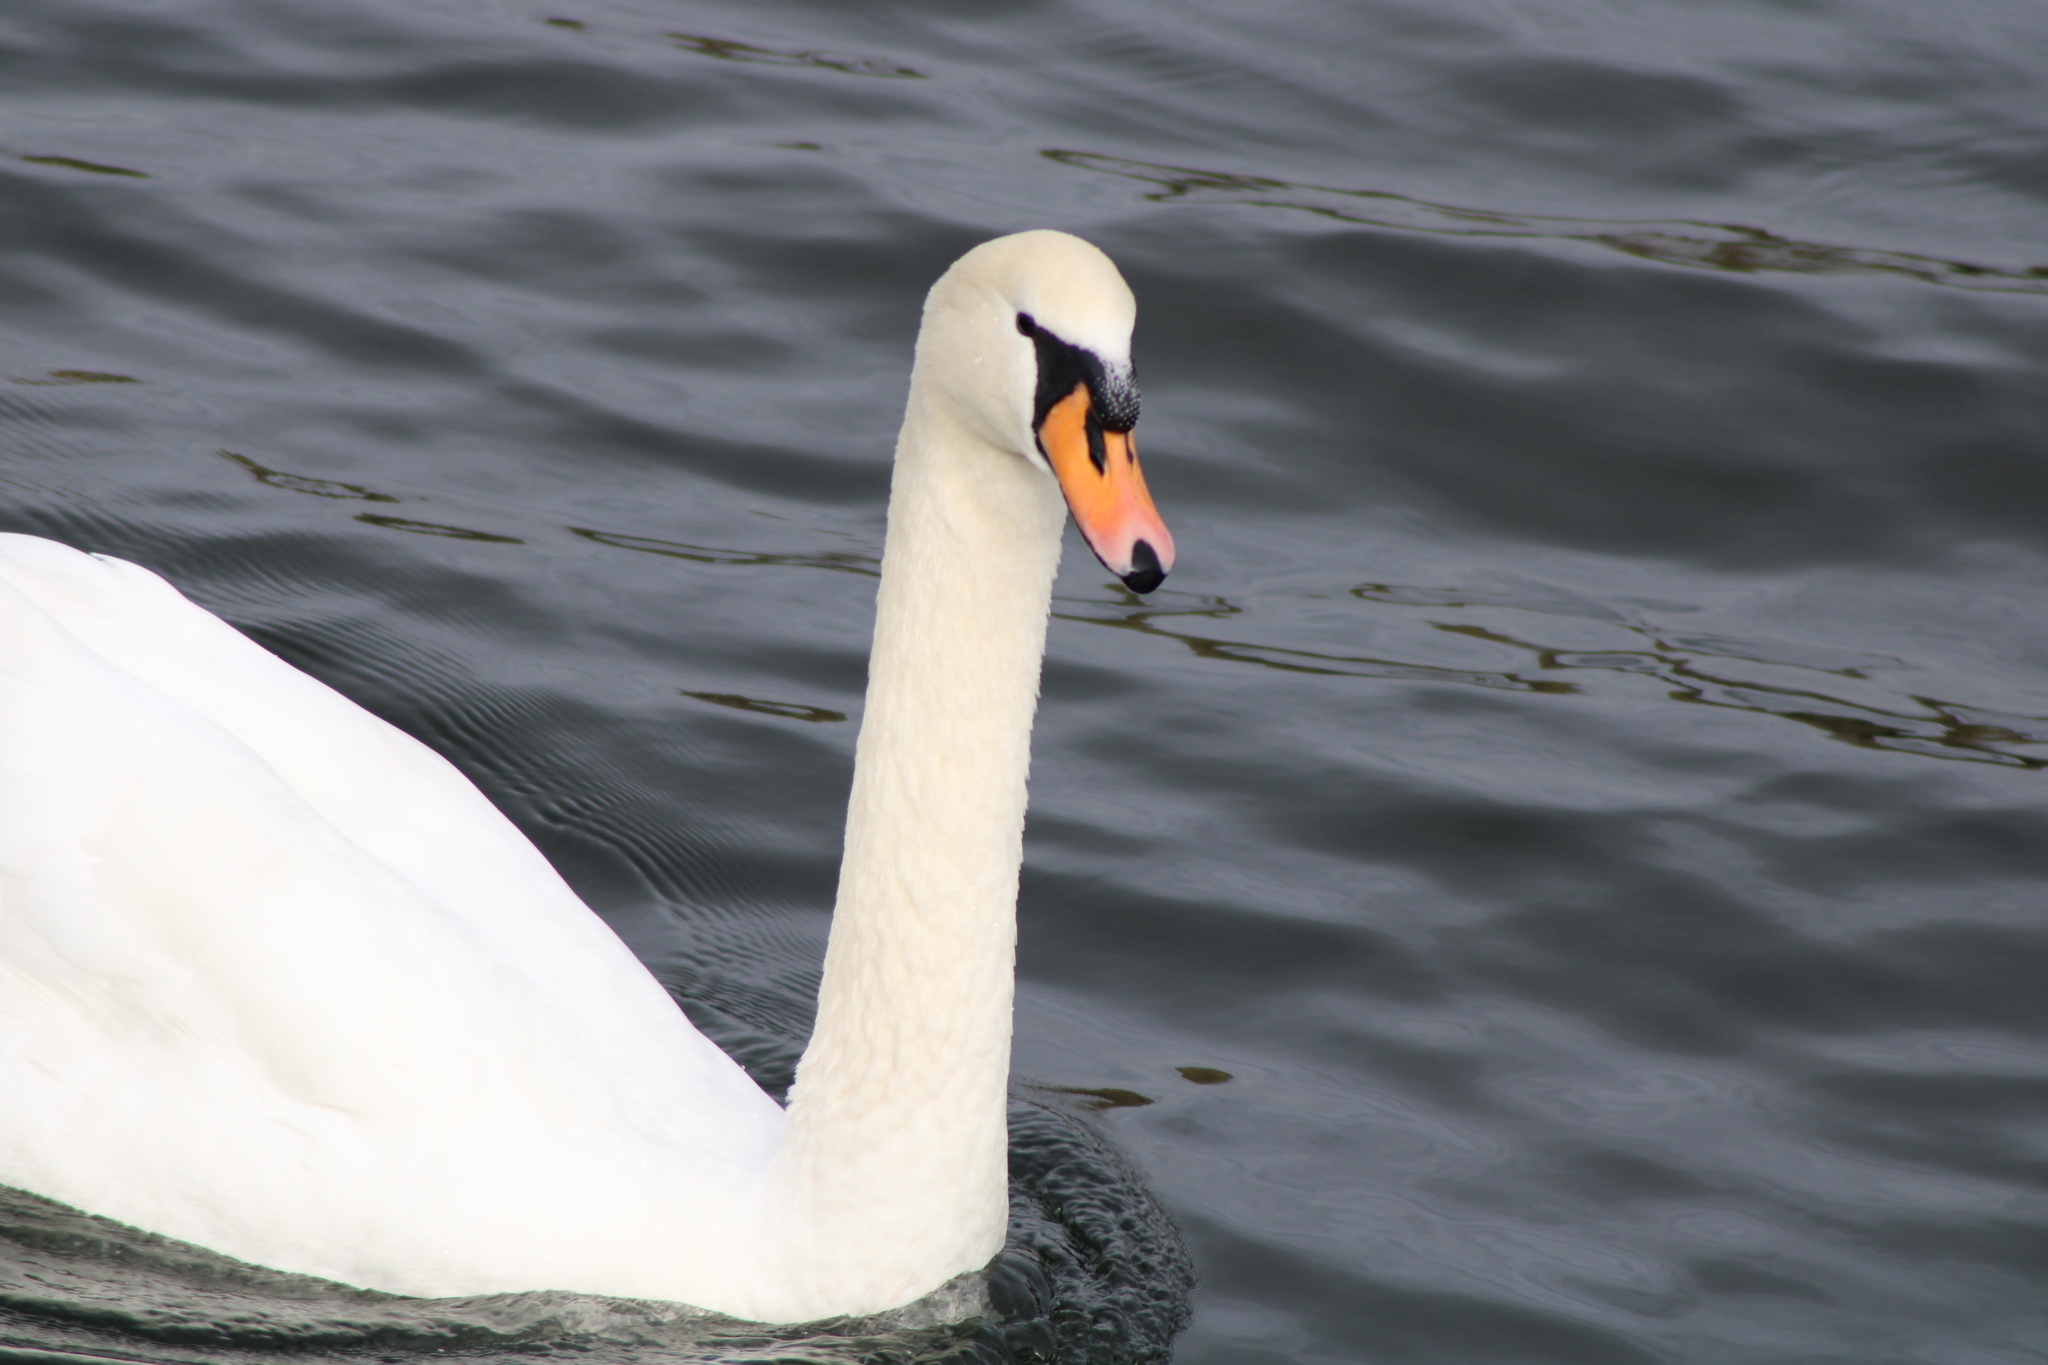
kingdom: Animalia
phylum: Chordata
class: Aves
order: Anseriformes
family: Anatidae
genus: Cygnus
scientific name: Cygnus olor
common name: Mute swan
